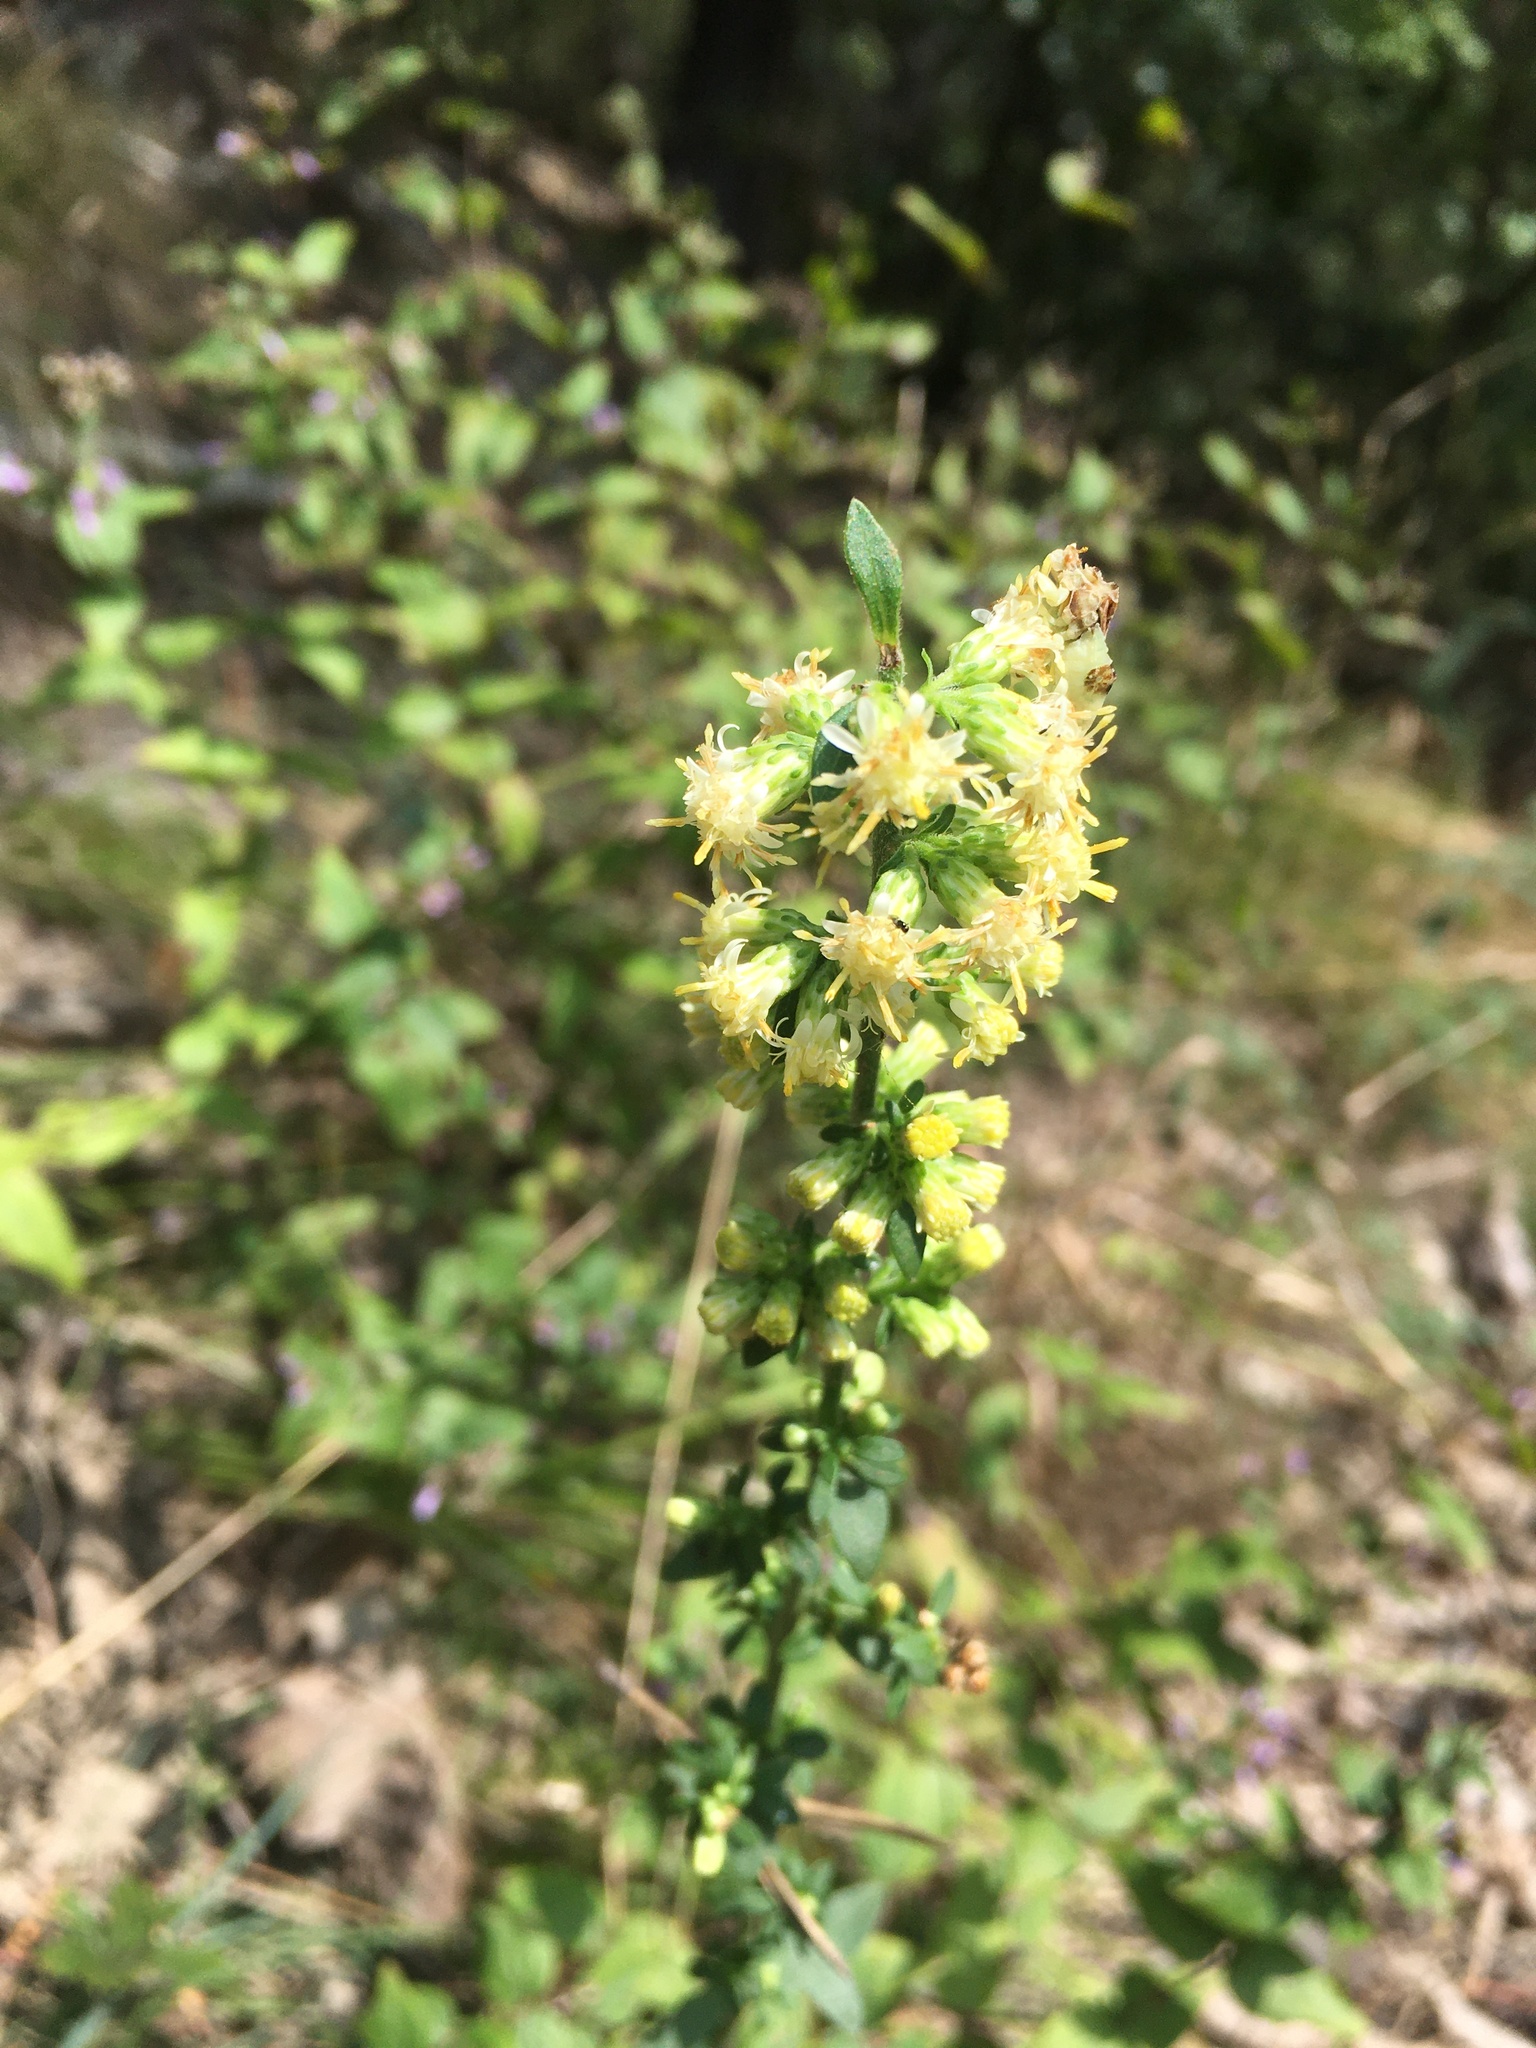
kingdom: Plantae
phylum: Tracheophyta
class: Magnoliopsida
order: Asterales
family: Asteraceae
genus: Solidago
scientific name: Solidago bicolor
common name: Silverrod
